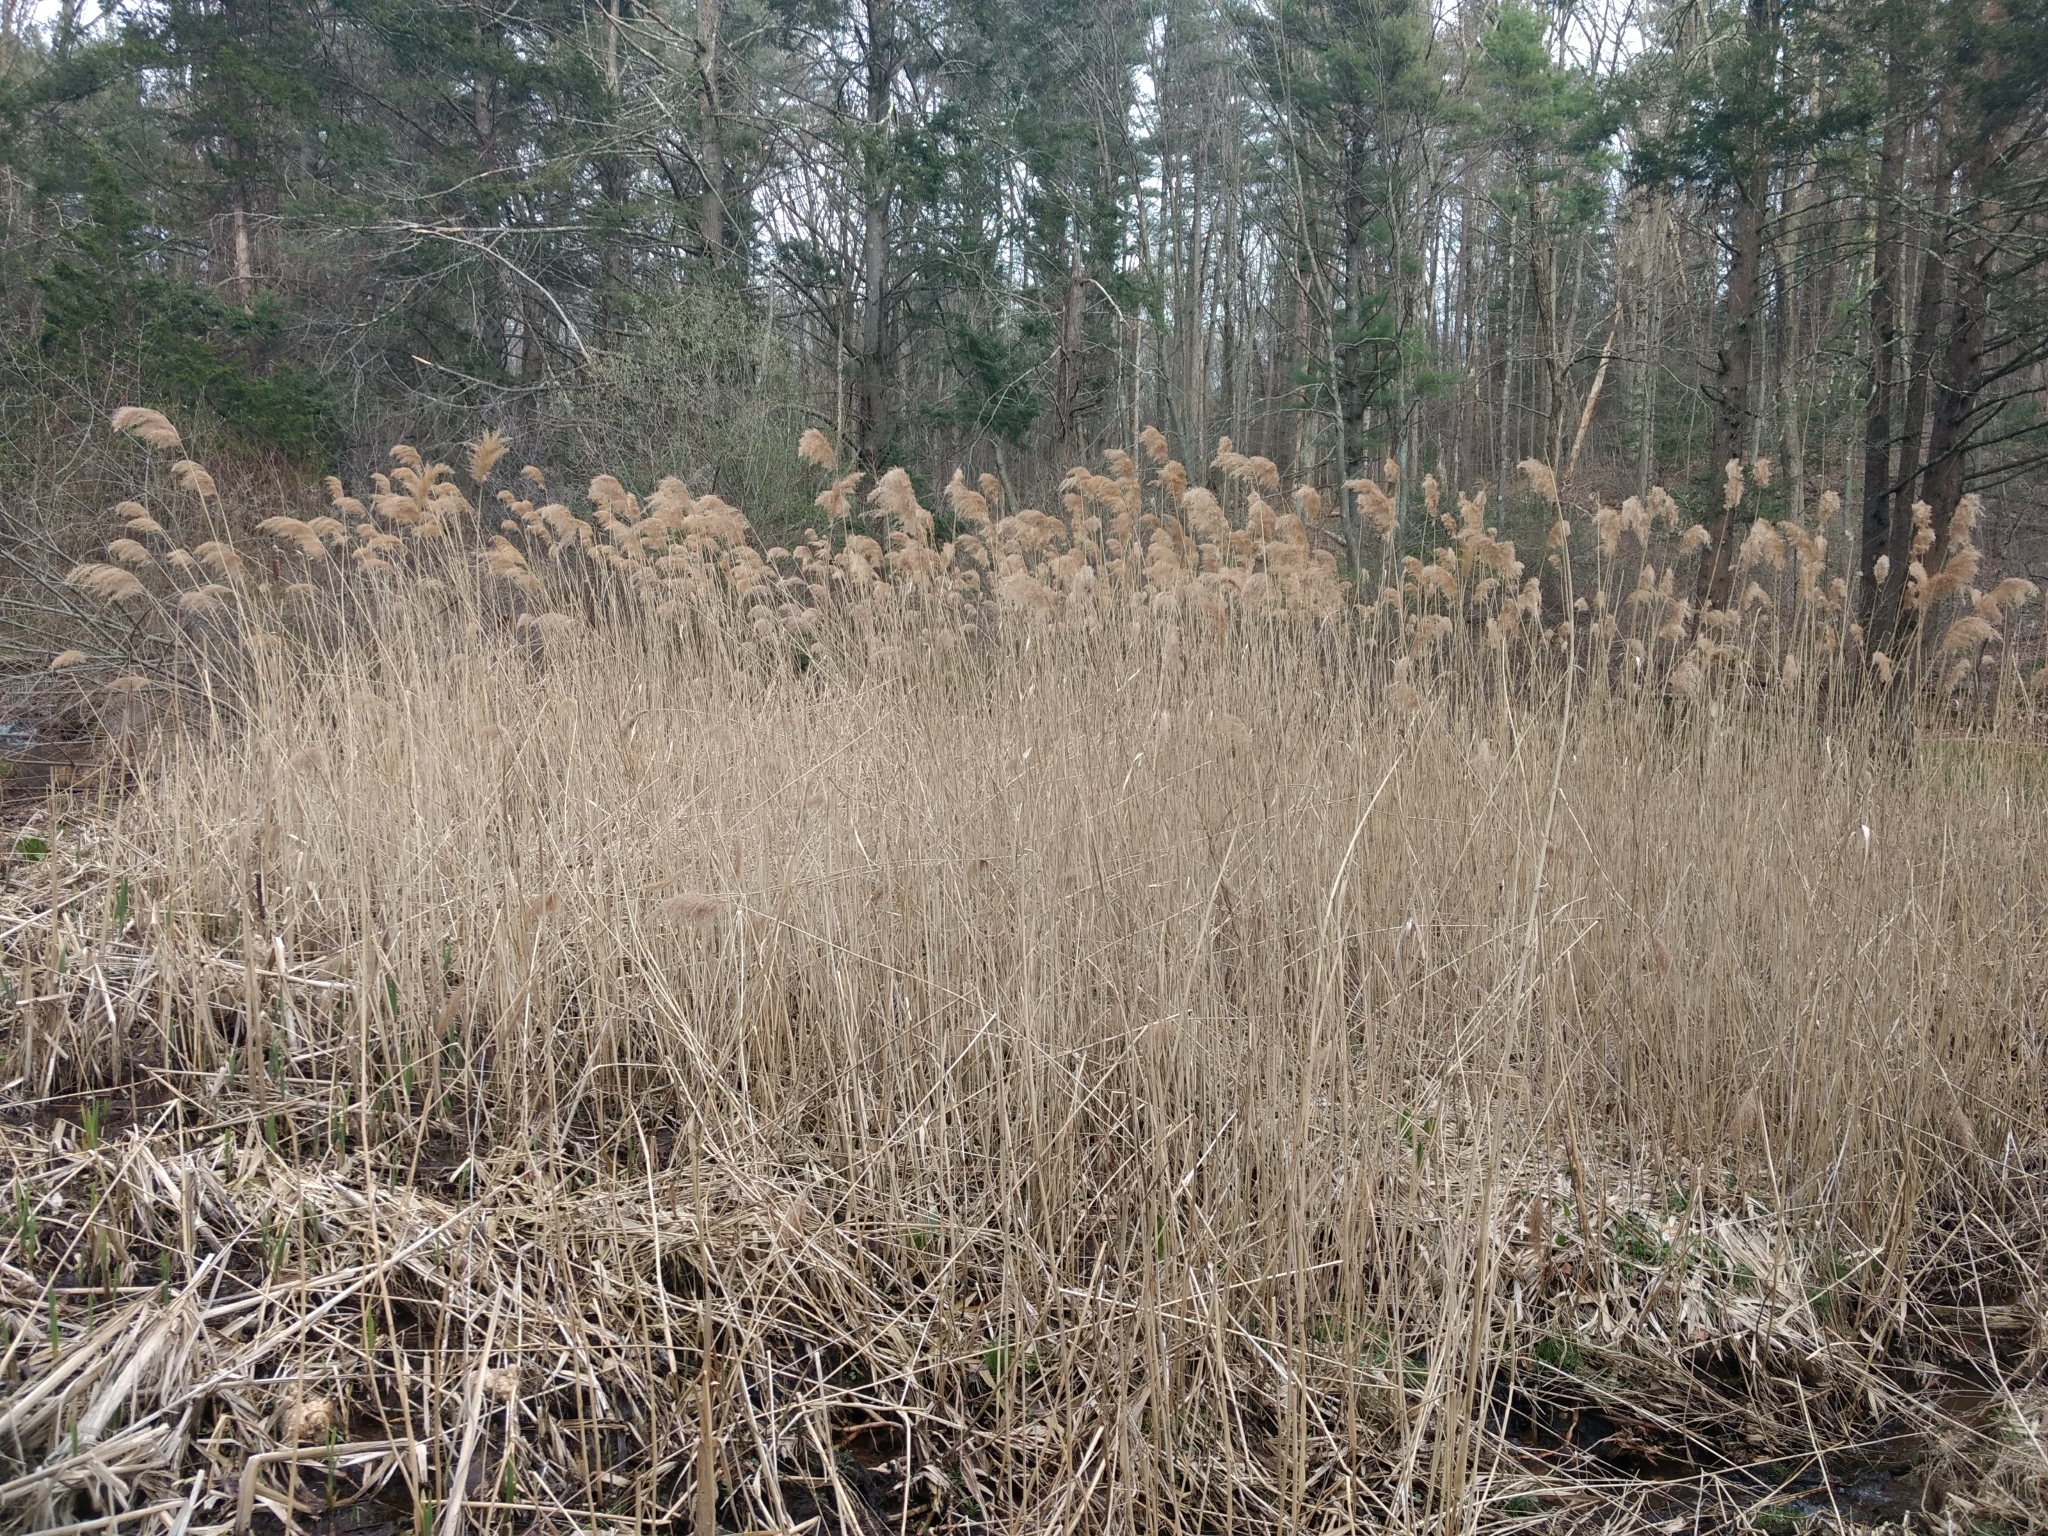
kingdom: Plantae
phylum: Tracheophyta
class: Liliopsida
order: Poales
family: Poaceae
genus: Phragmites
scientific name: Phragmites australis
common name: Common reed
